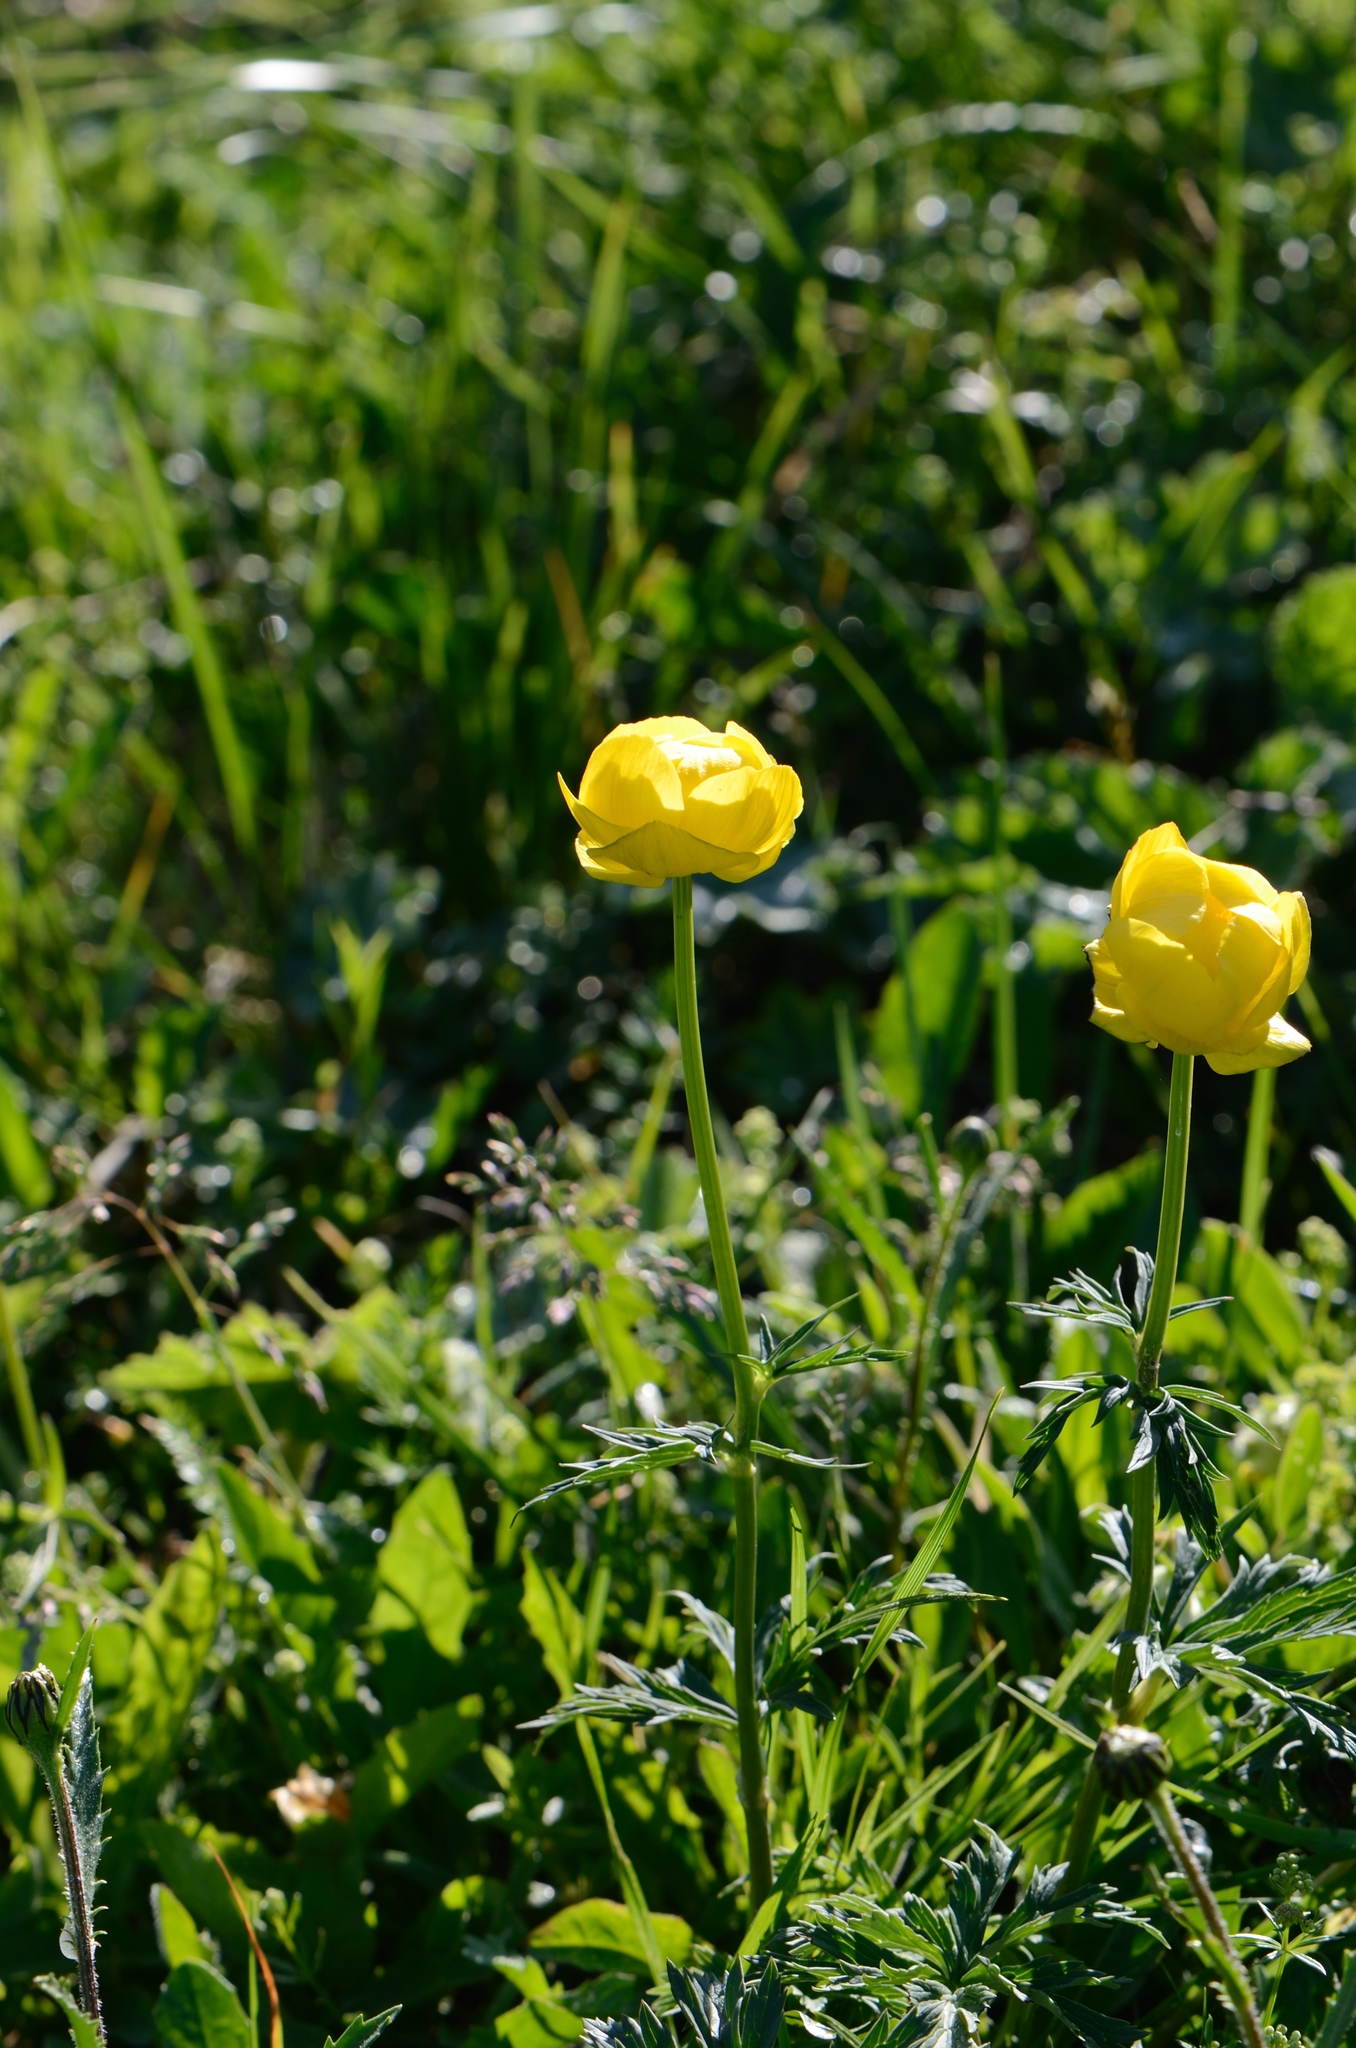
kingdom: Plantae
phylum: Tracheophyta
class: Magnoliopsida
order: Ranunculales
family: Ranunculaceae
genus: Trollius
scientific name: Trollius europaeus
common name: European globeflower
